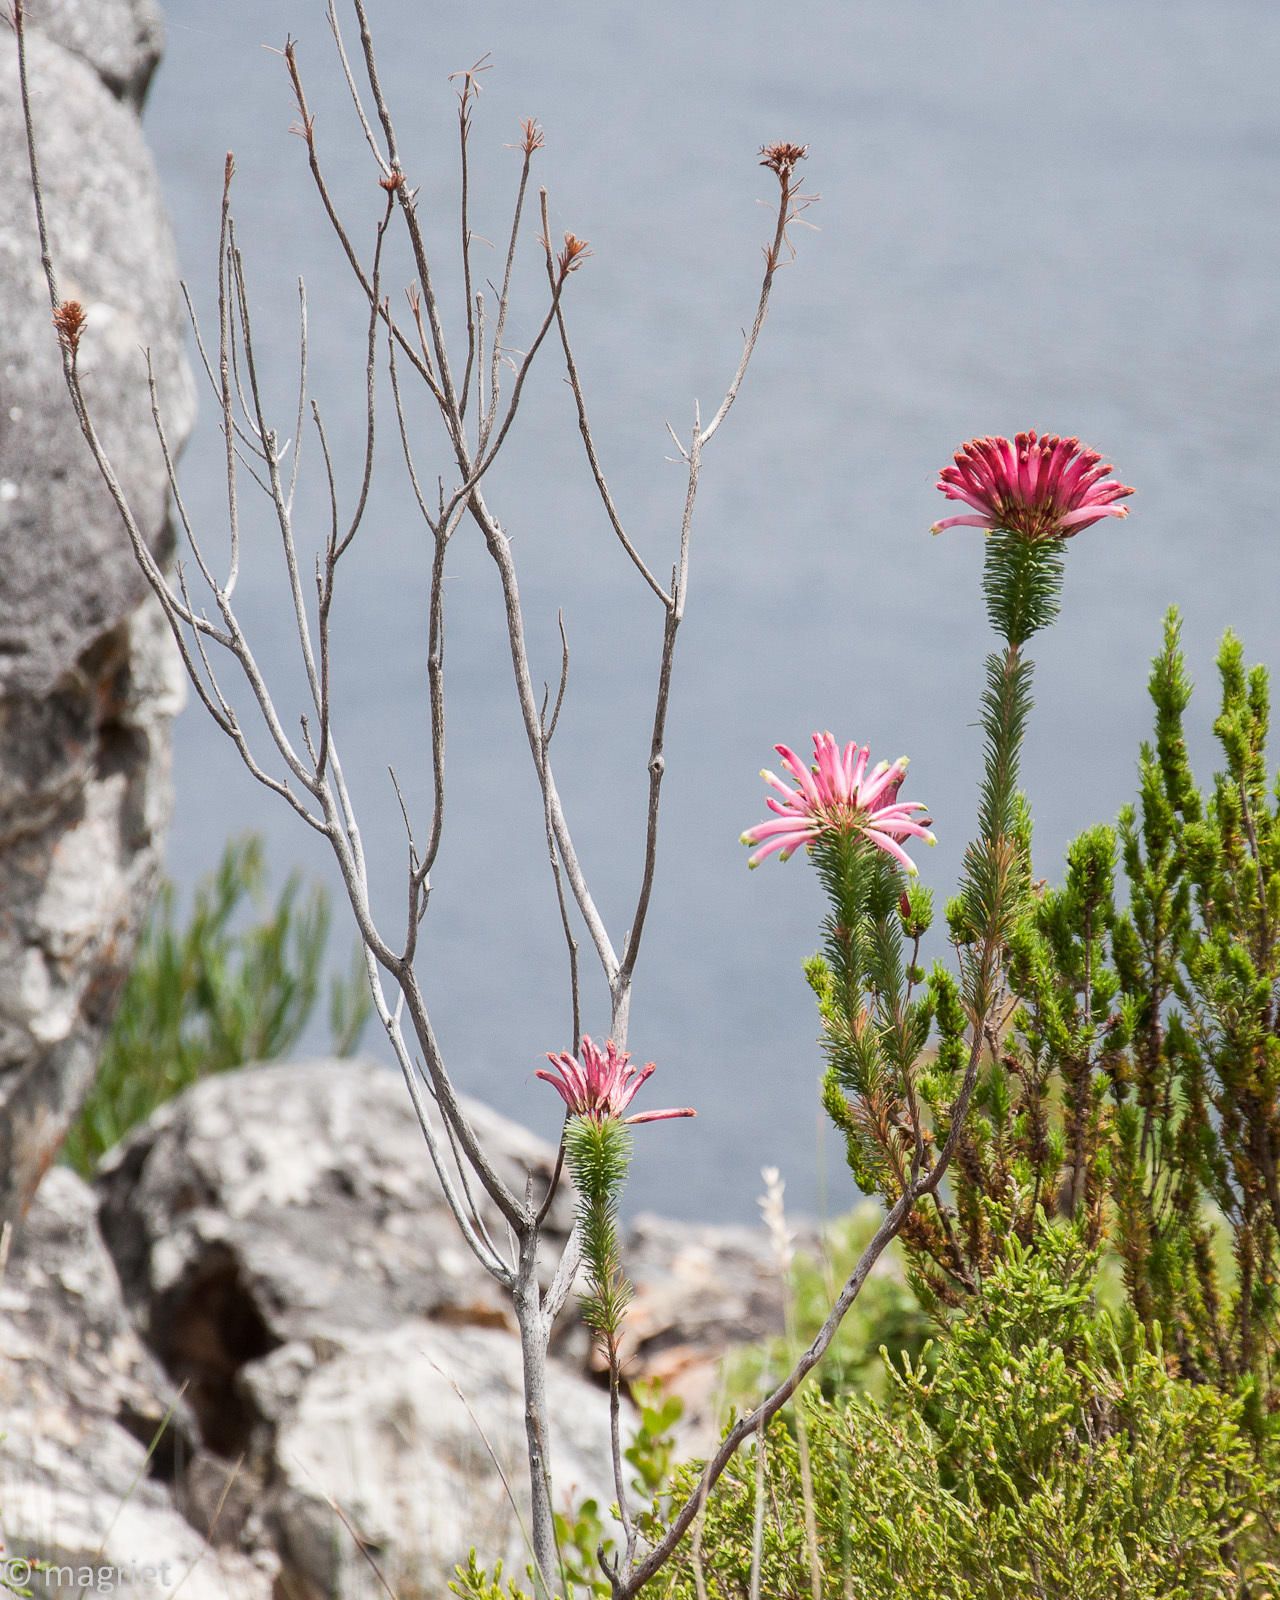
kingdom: Plantae
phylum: Tracheophyta
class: Magnoliopsida
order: Ericales
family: Ericaceae
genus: Erica
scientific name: Erica fascicularis
